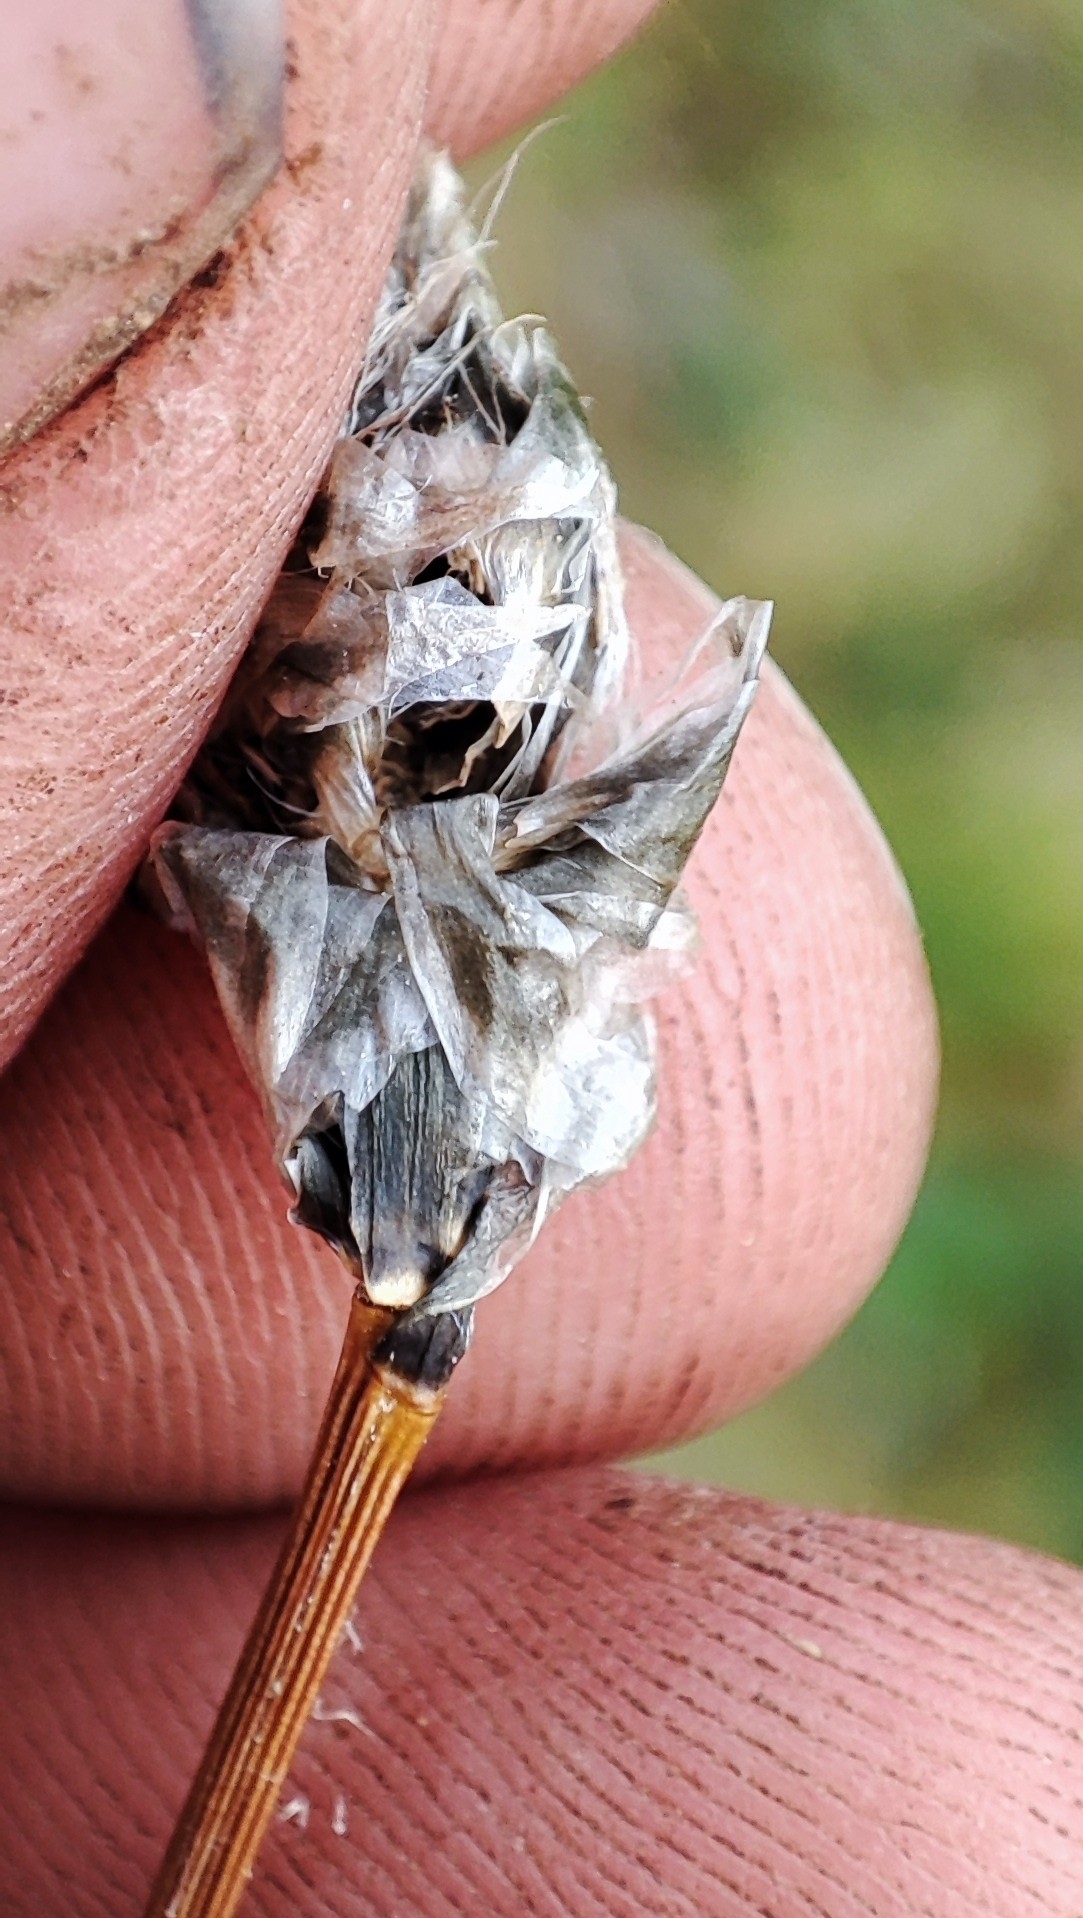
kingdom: Plantae
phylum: Tracheophyta
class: Liliopsida
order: Poales
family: Cyperaceae
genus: Eriophorum
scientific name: Eriophorum vaginatum
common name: Hare's-tail cottongrass
